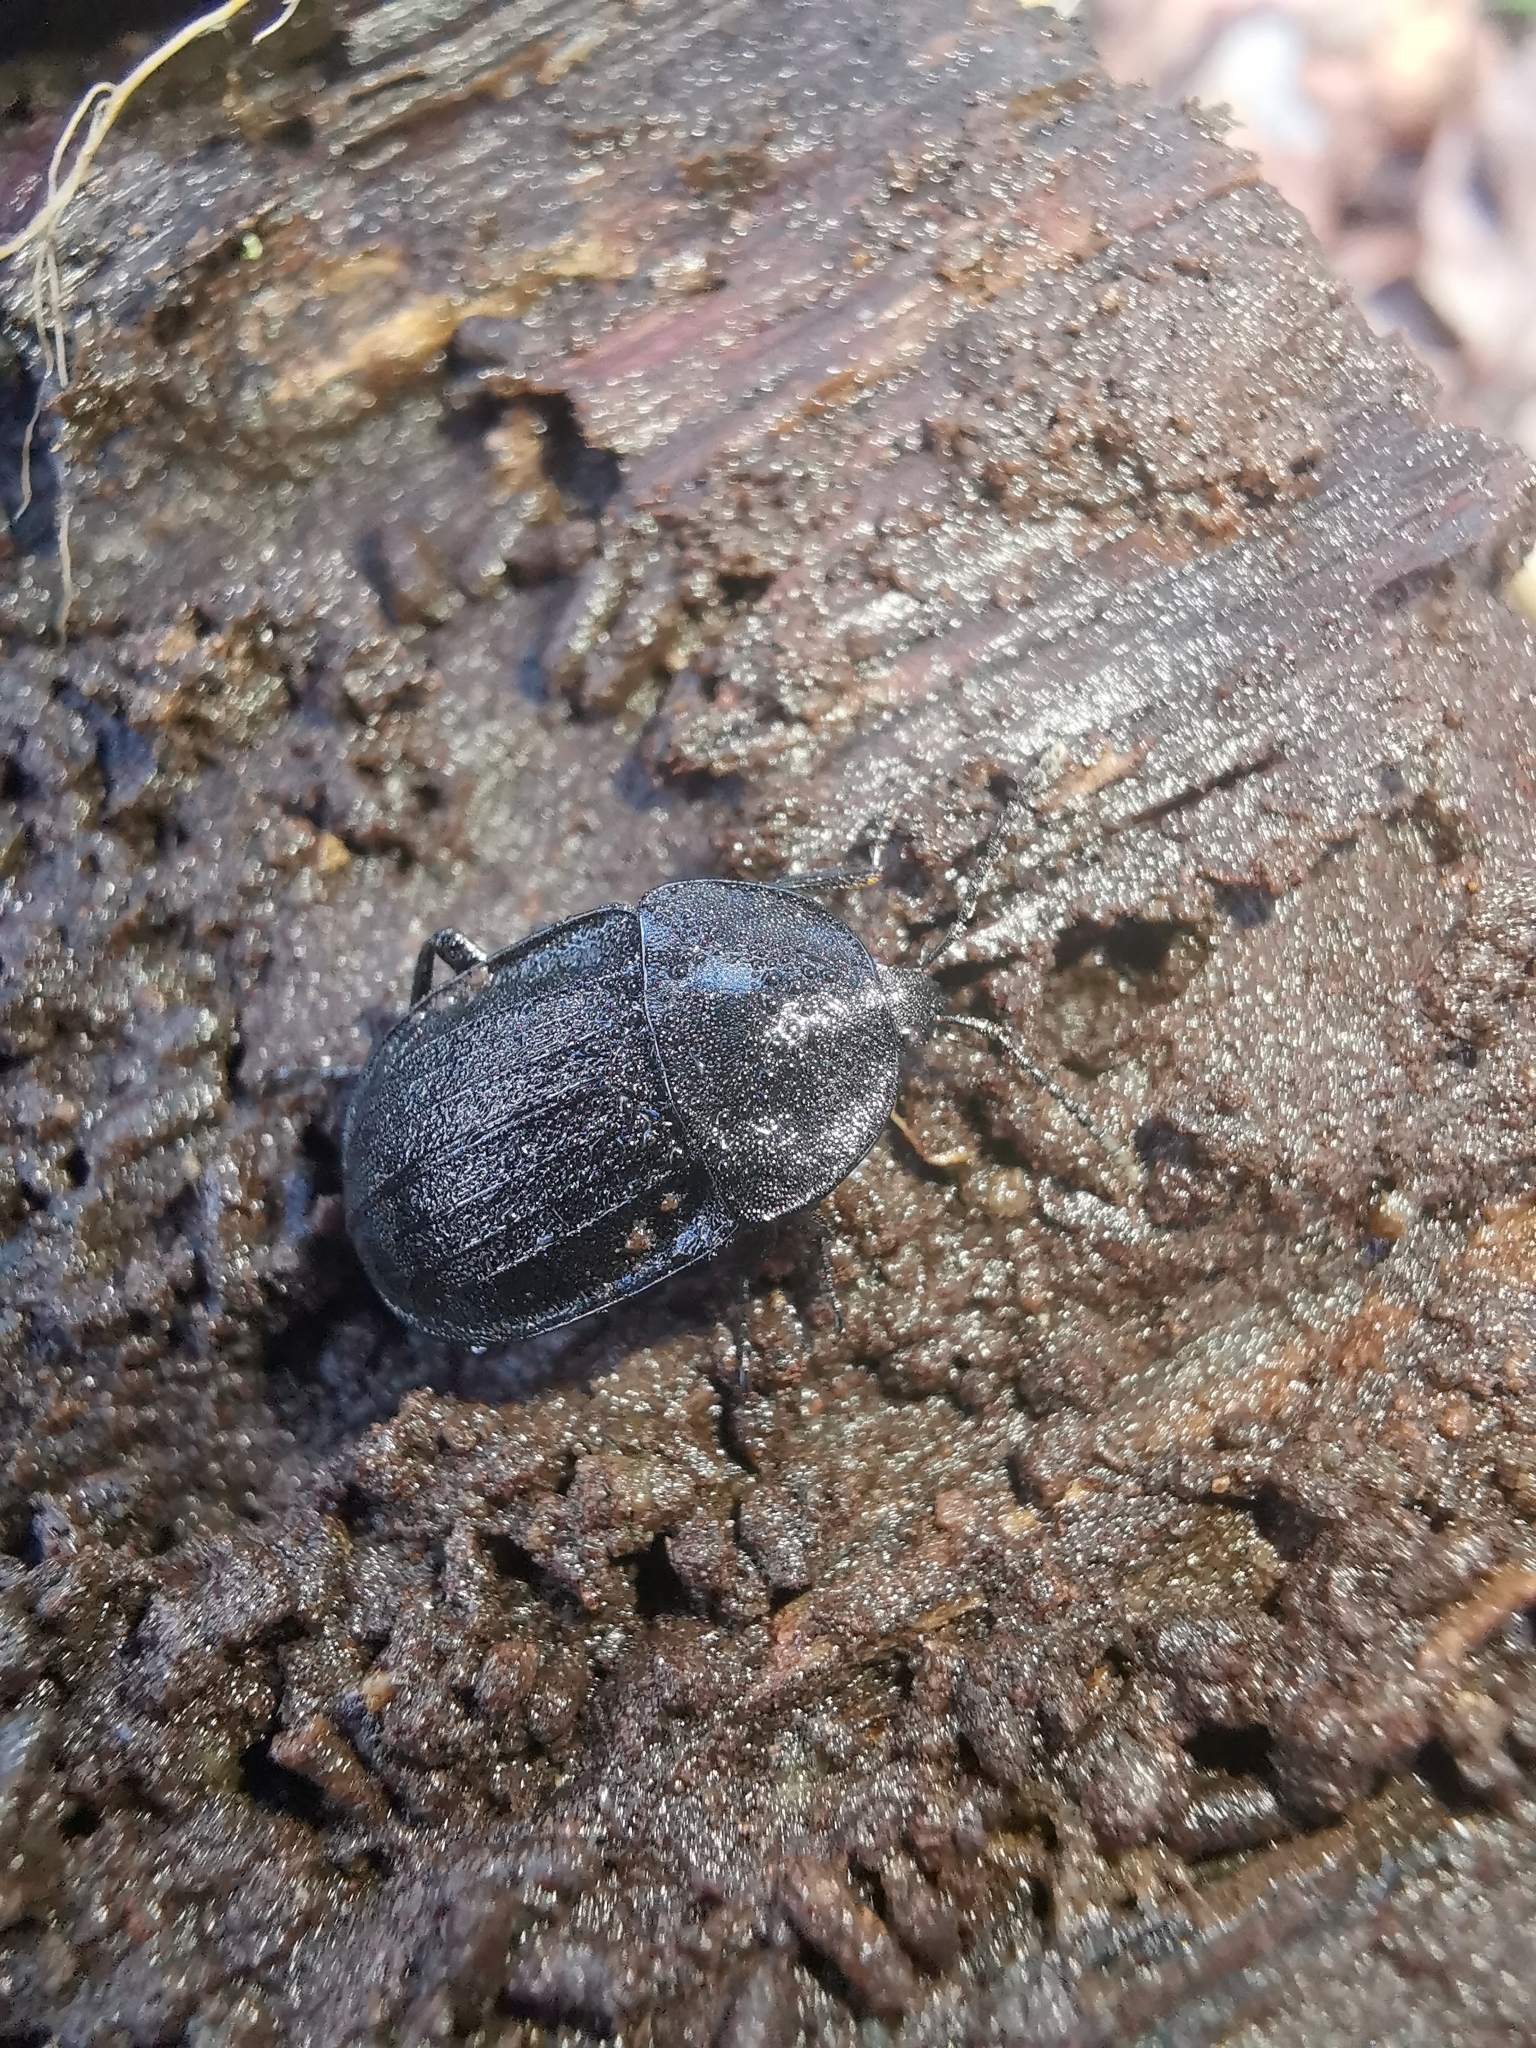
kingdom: Animalia
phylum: Arthropoda
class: Insecta
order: Coleoptera
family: Staphylinidae
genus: Silpha
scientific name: Silpha atrata
